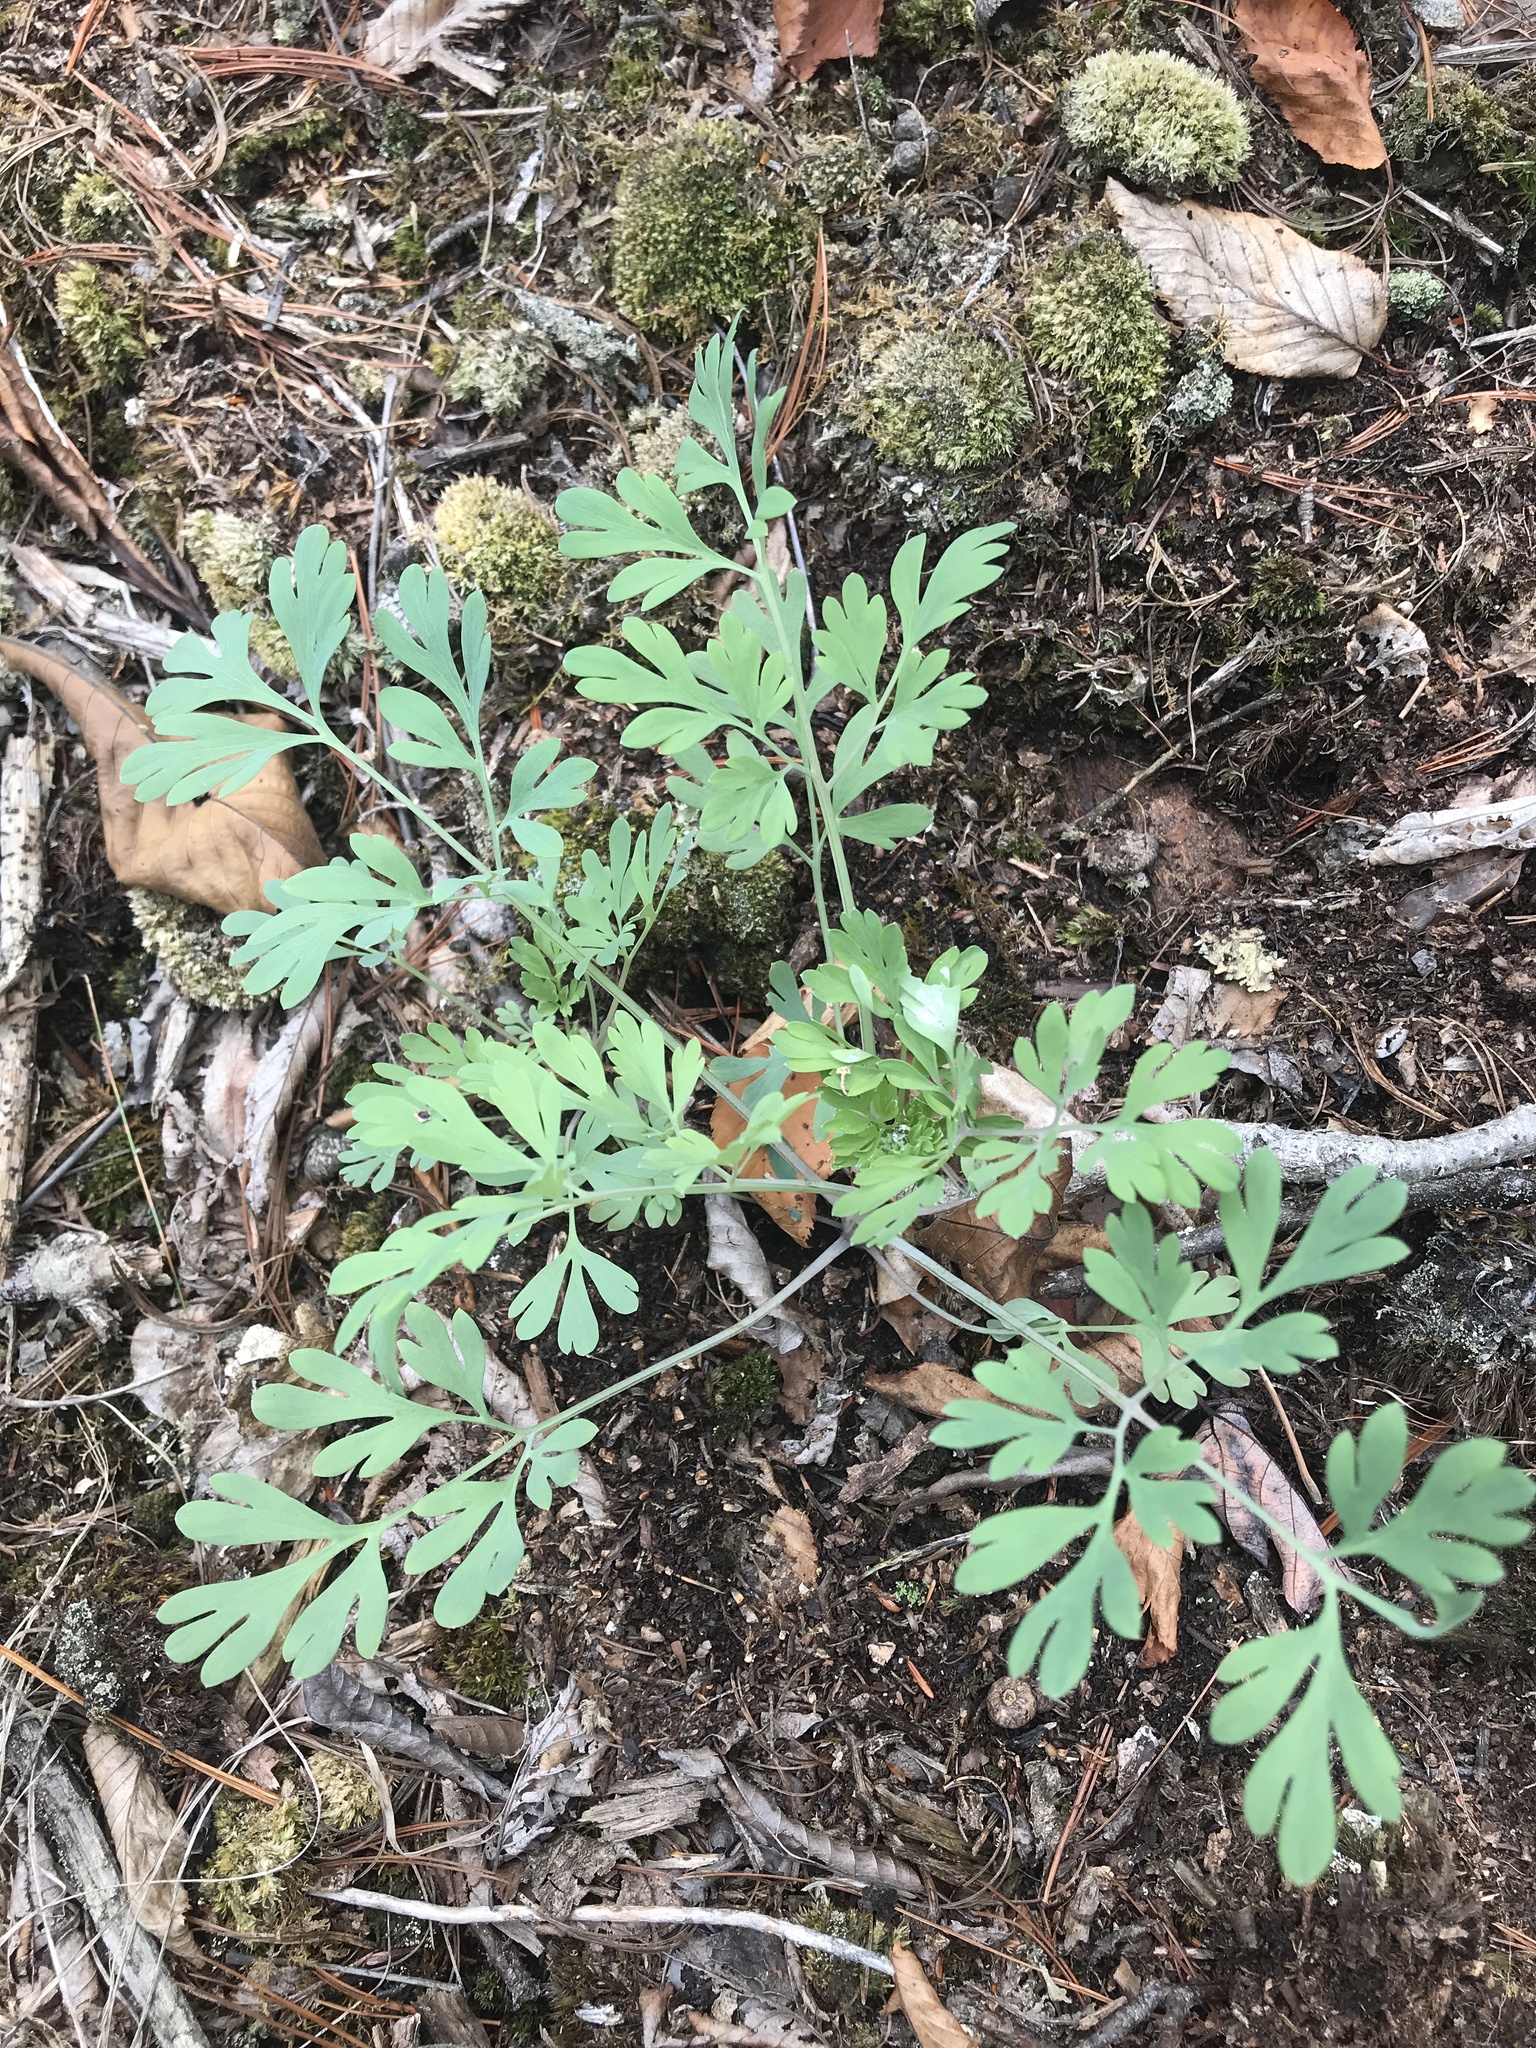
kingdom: Plantae
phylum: Tracheophyta
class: Magnoliopsida
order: Ranunculales
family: Papaveraceae
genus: Capnoides
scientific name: Capnoides sempervirens
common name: Rock harlequin
